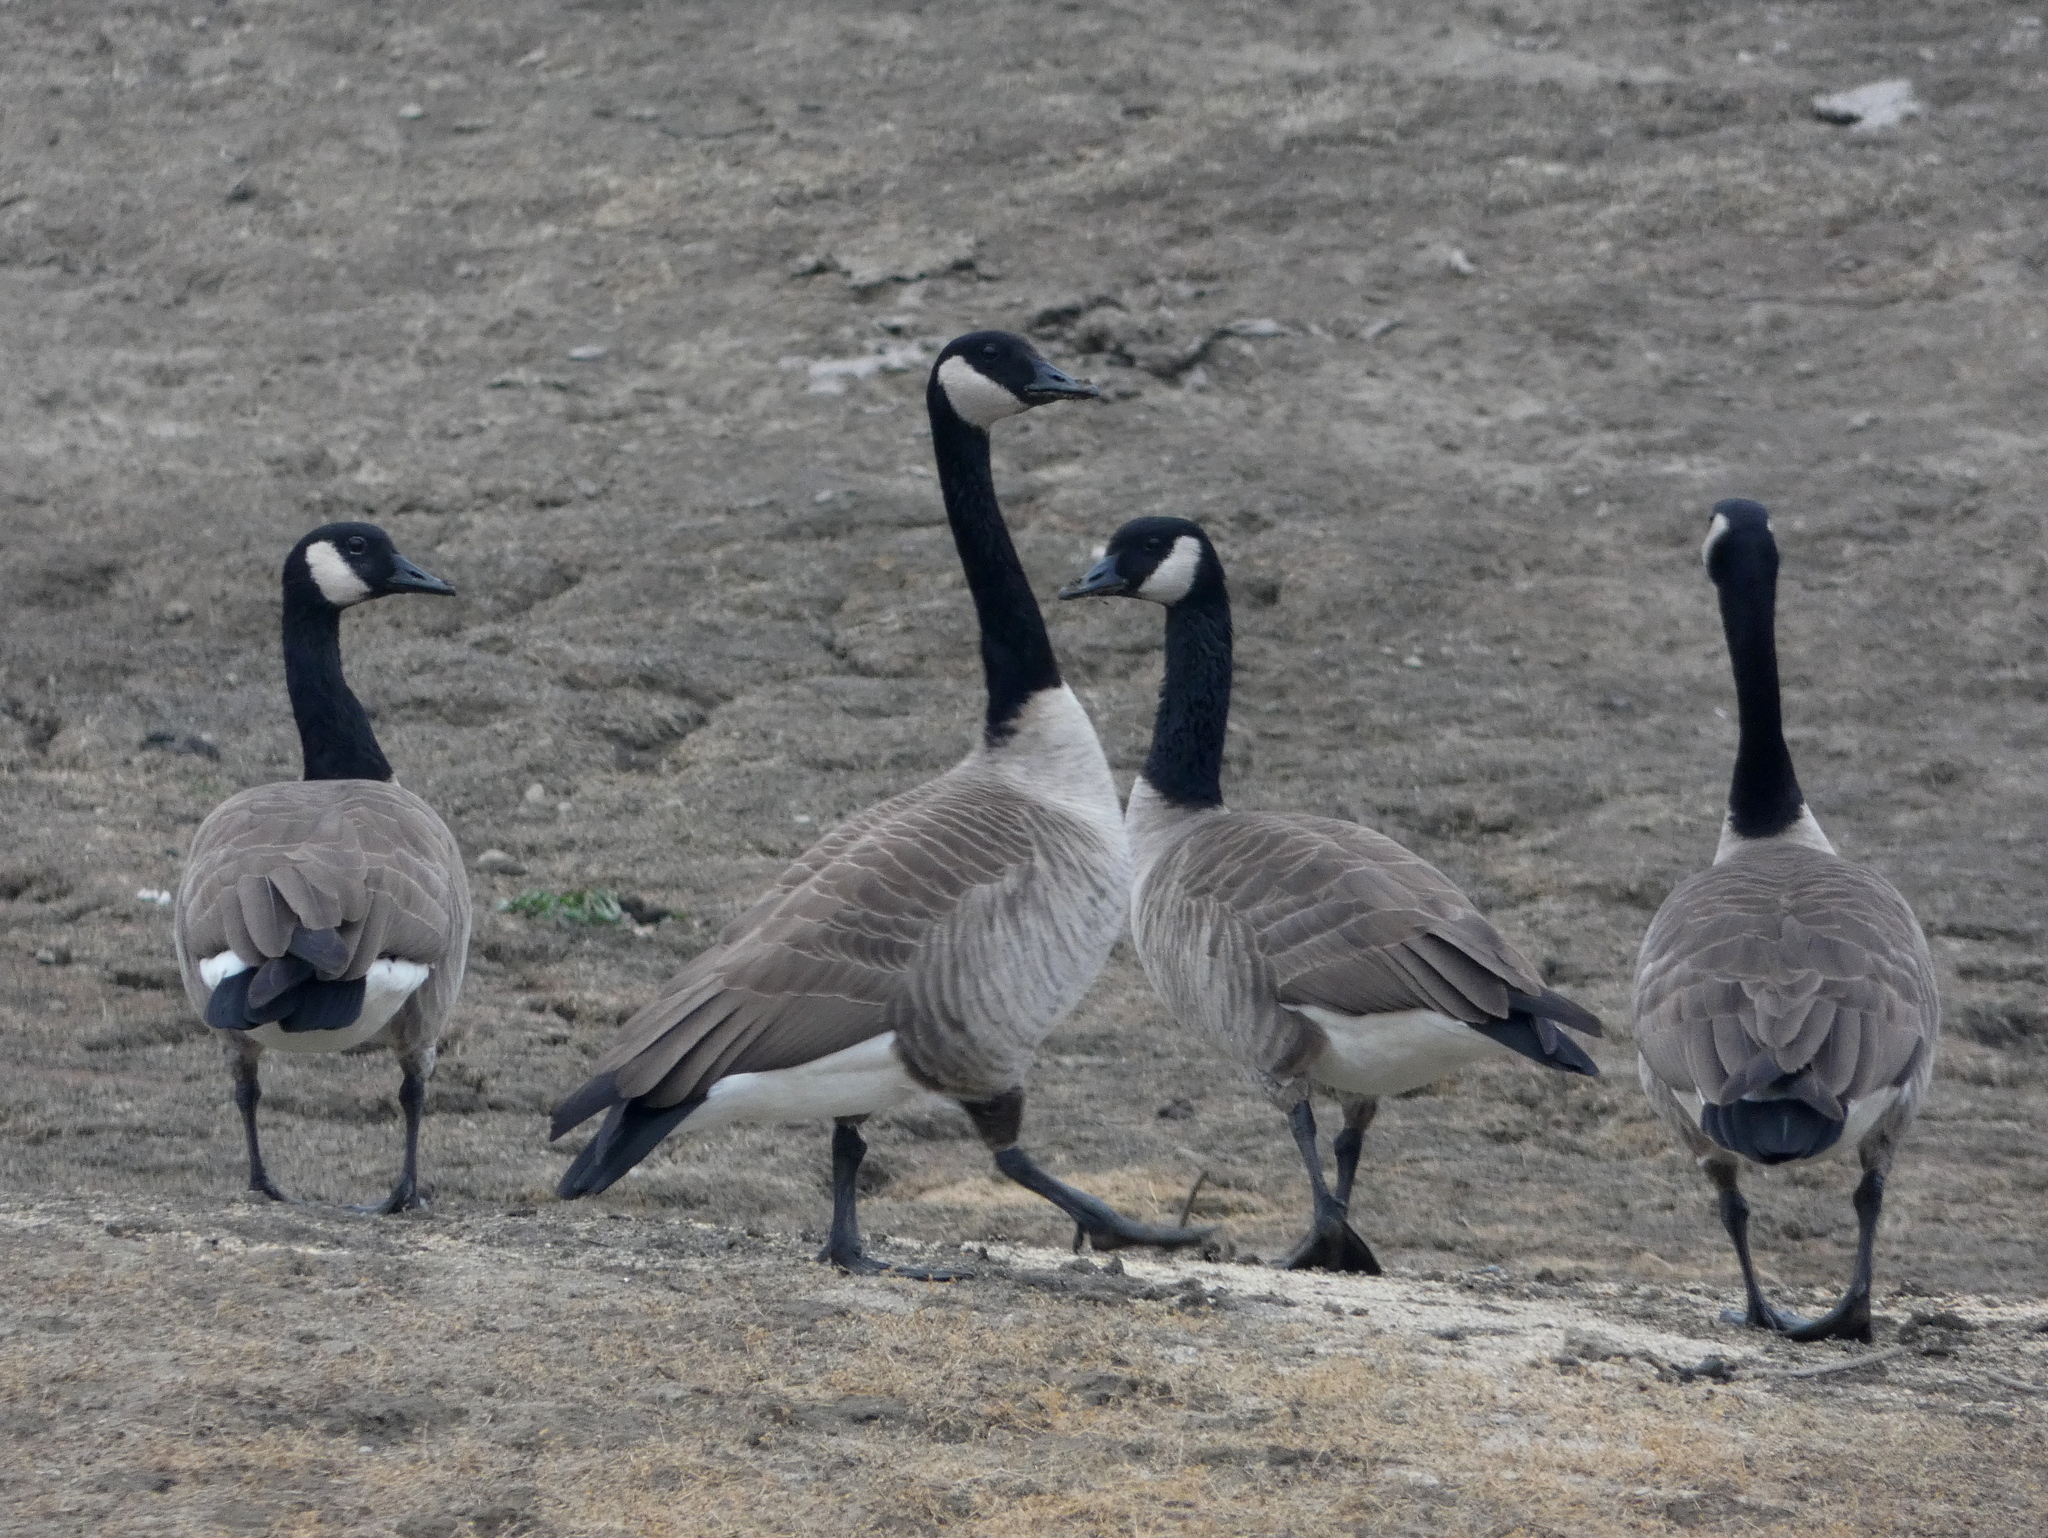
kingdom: Animalia
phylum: Chordata
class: Aves
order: Anseriformes
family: Anatidae
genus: Branta
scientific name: Branta canadensis
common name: Canada goose
